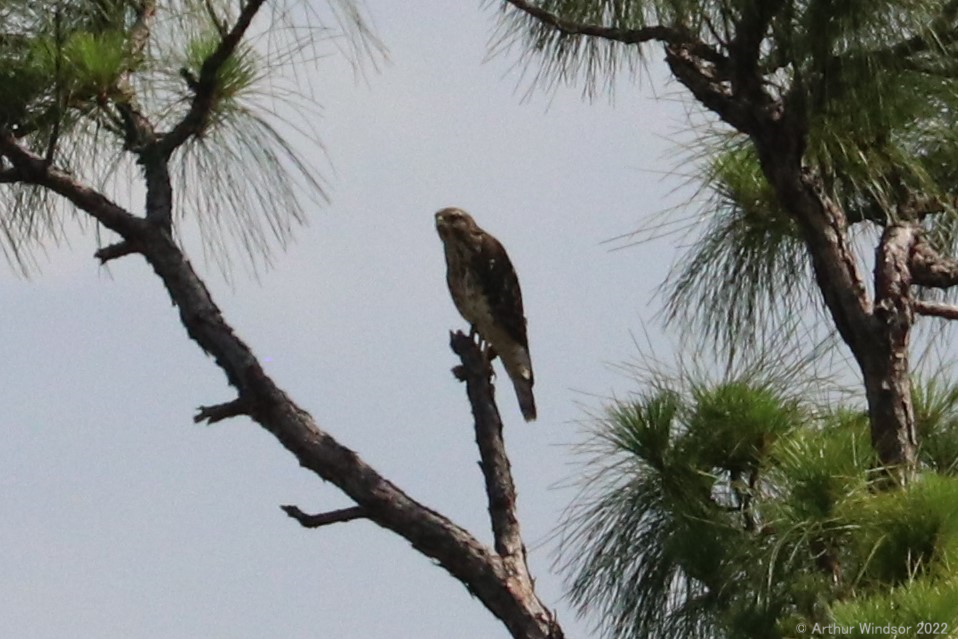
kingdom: Animalia
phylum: Chordata
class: Aves
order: Accipitriformes
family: Accipitridae
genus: Buteo
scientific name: Buteo lineatus
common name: Red-shouldered hawk
